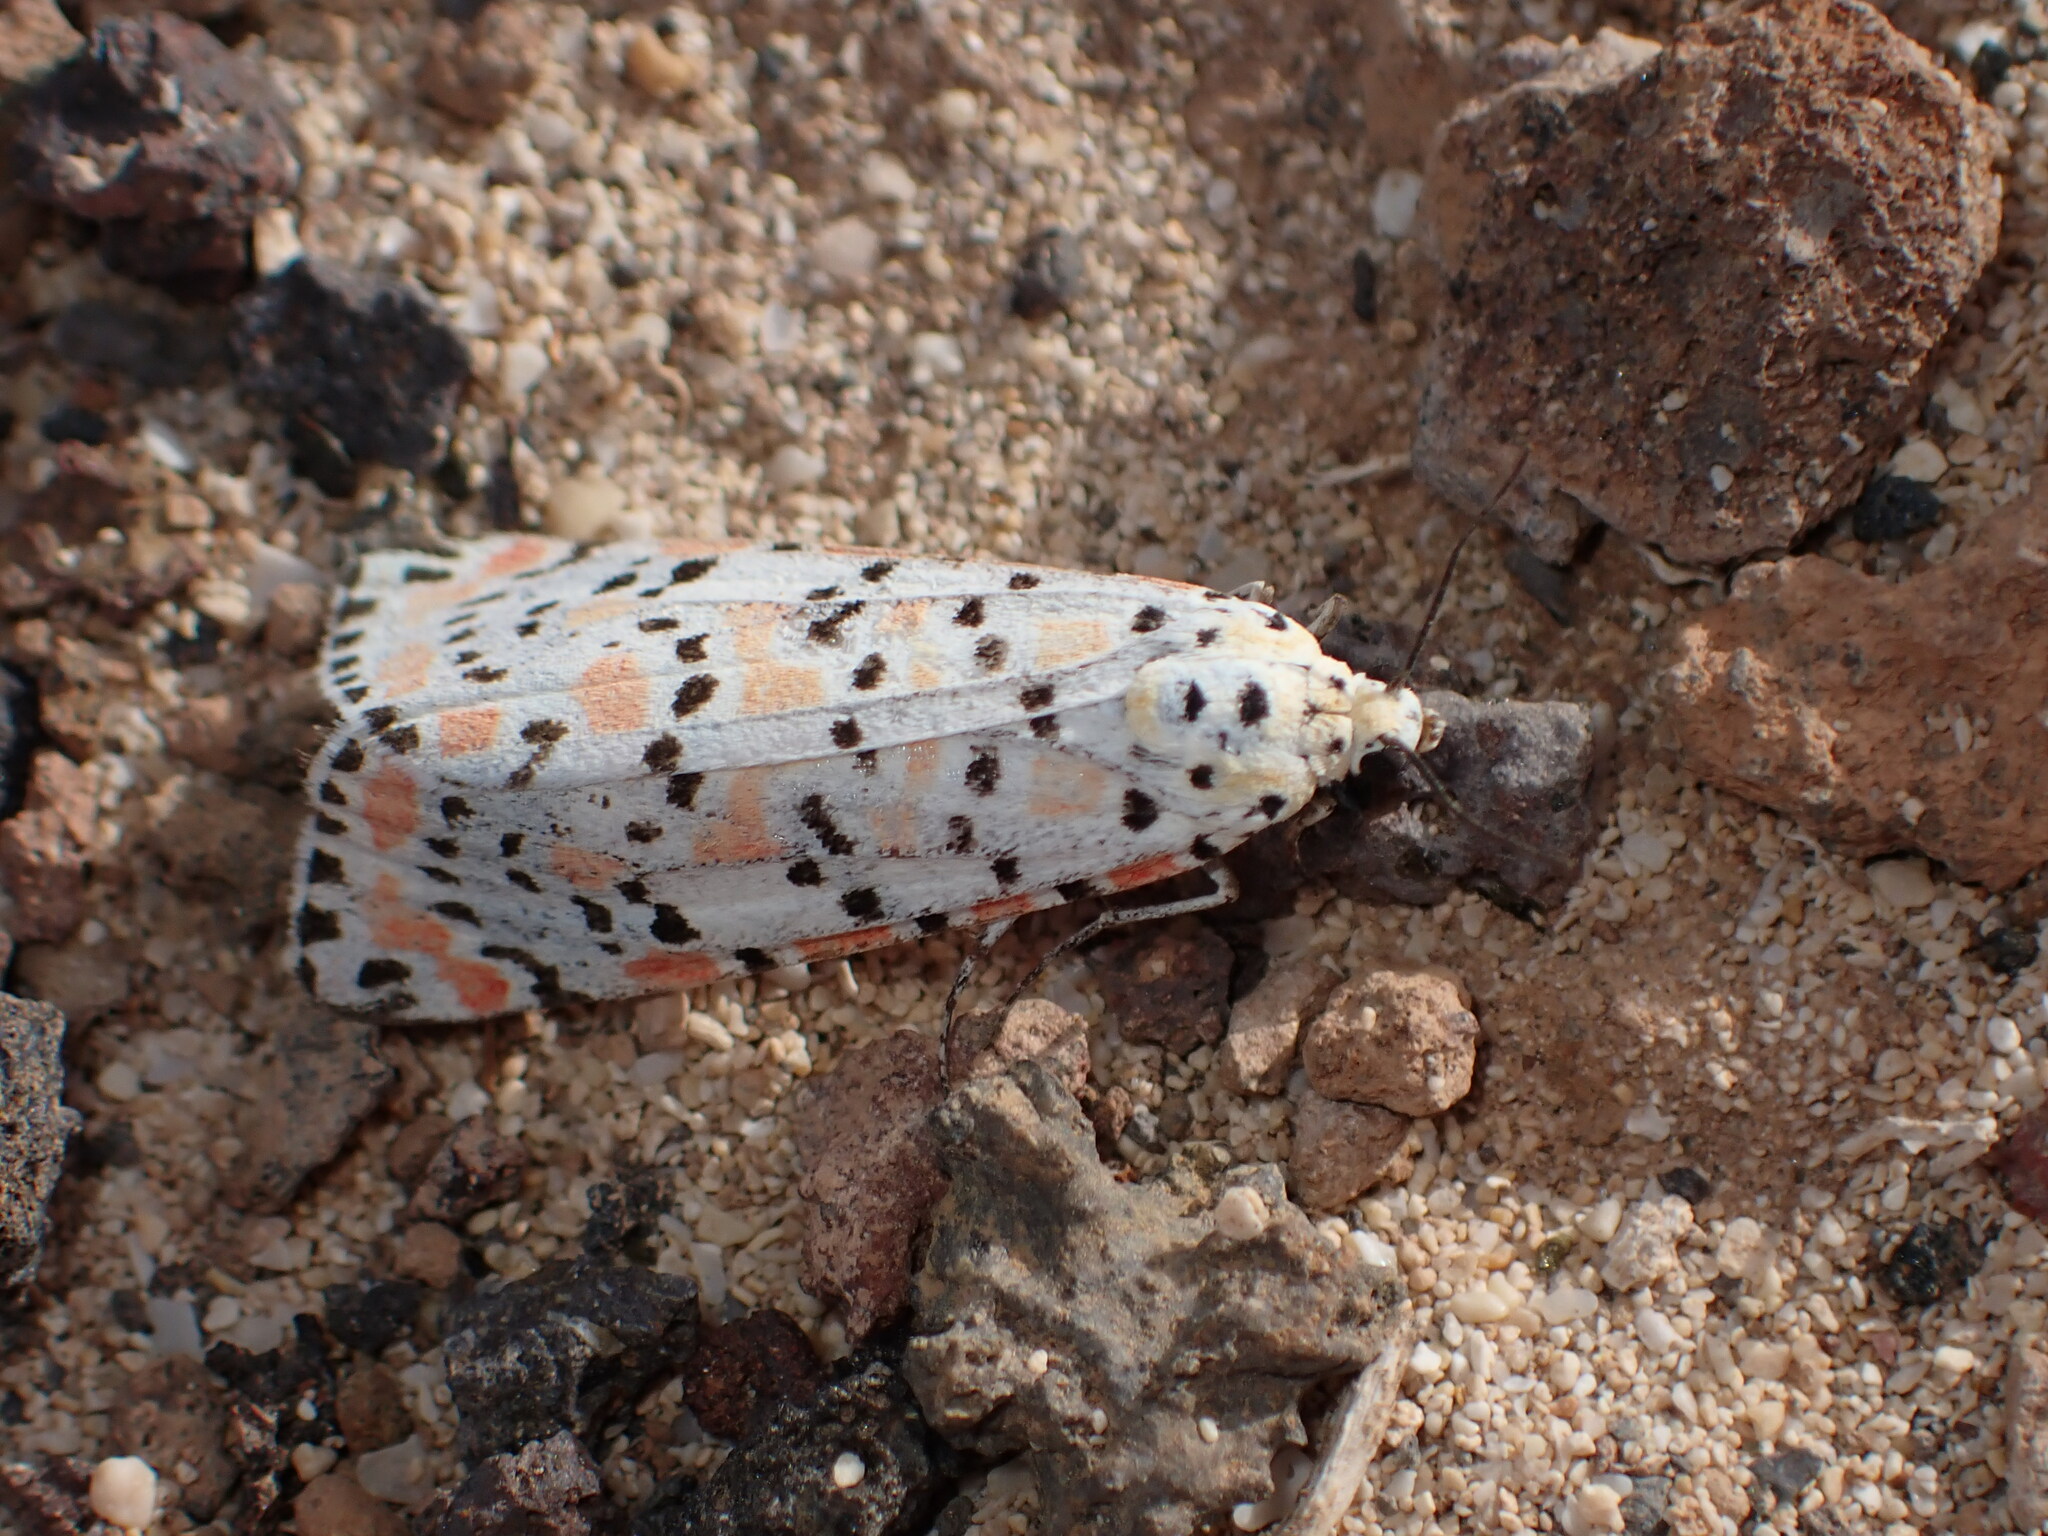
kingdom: Animalia
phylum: Arthropoda
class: Insecta
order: Lepidoptera
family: Erebidae
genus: Utetheisa
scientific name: Utetheisa pulchella
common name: Crimson speckled
